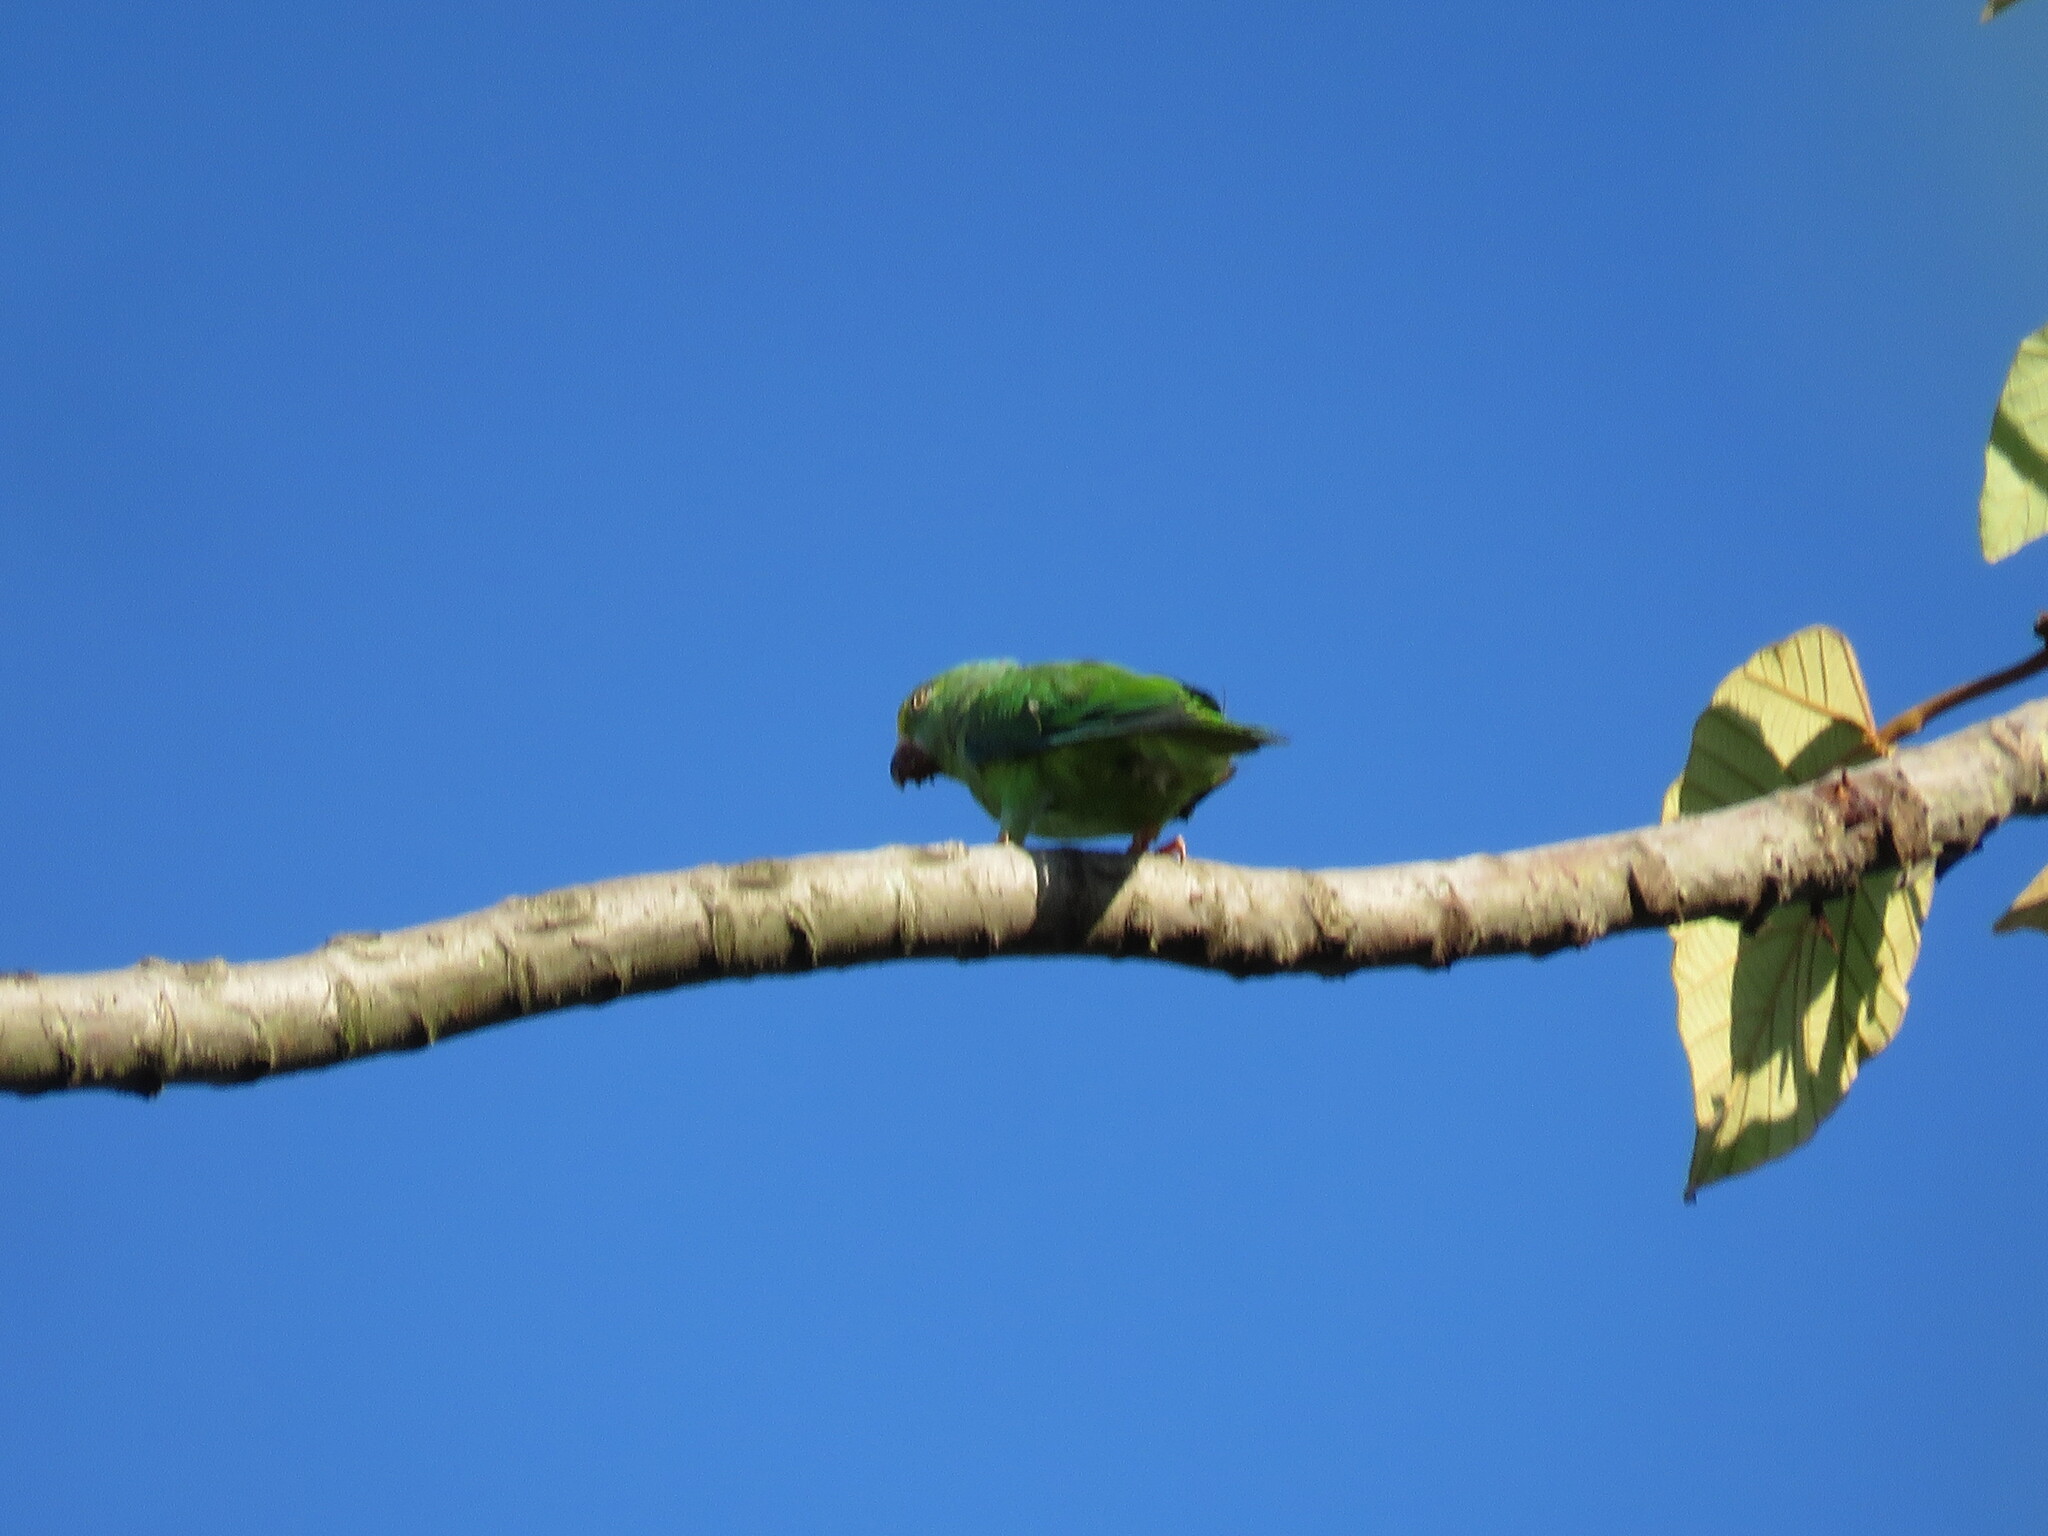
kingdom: Animalia
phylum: Chordata
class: Aves
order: Psittaciformes
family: Psittacidae
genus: Brotogeris
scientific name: Brotogeris sanctithomae
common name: Tui parakeet
